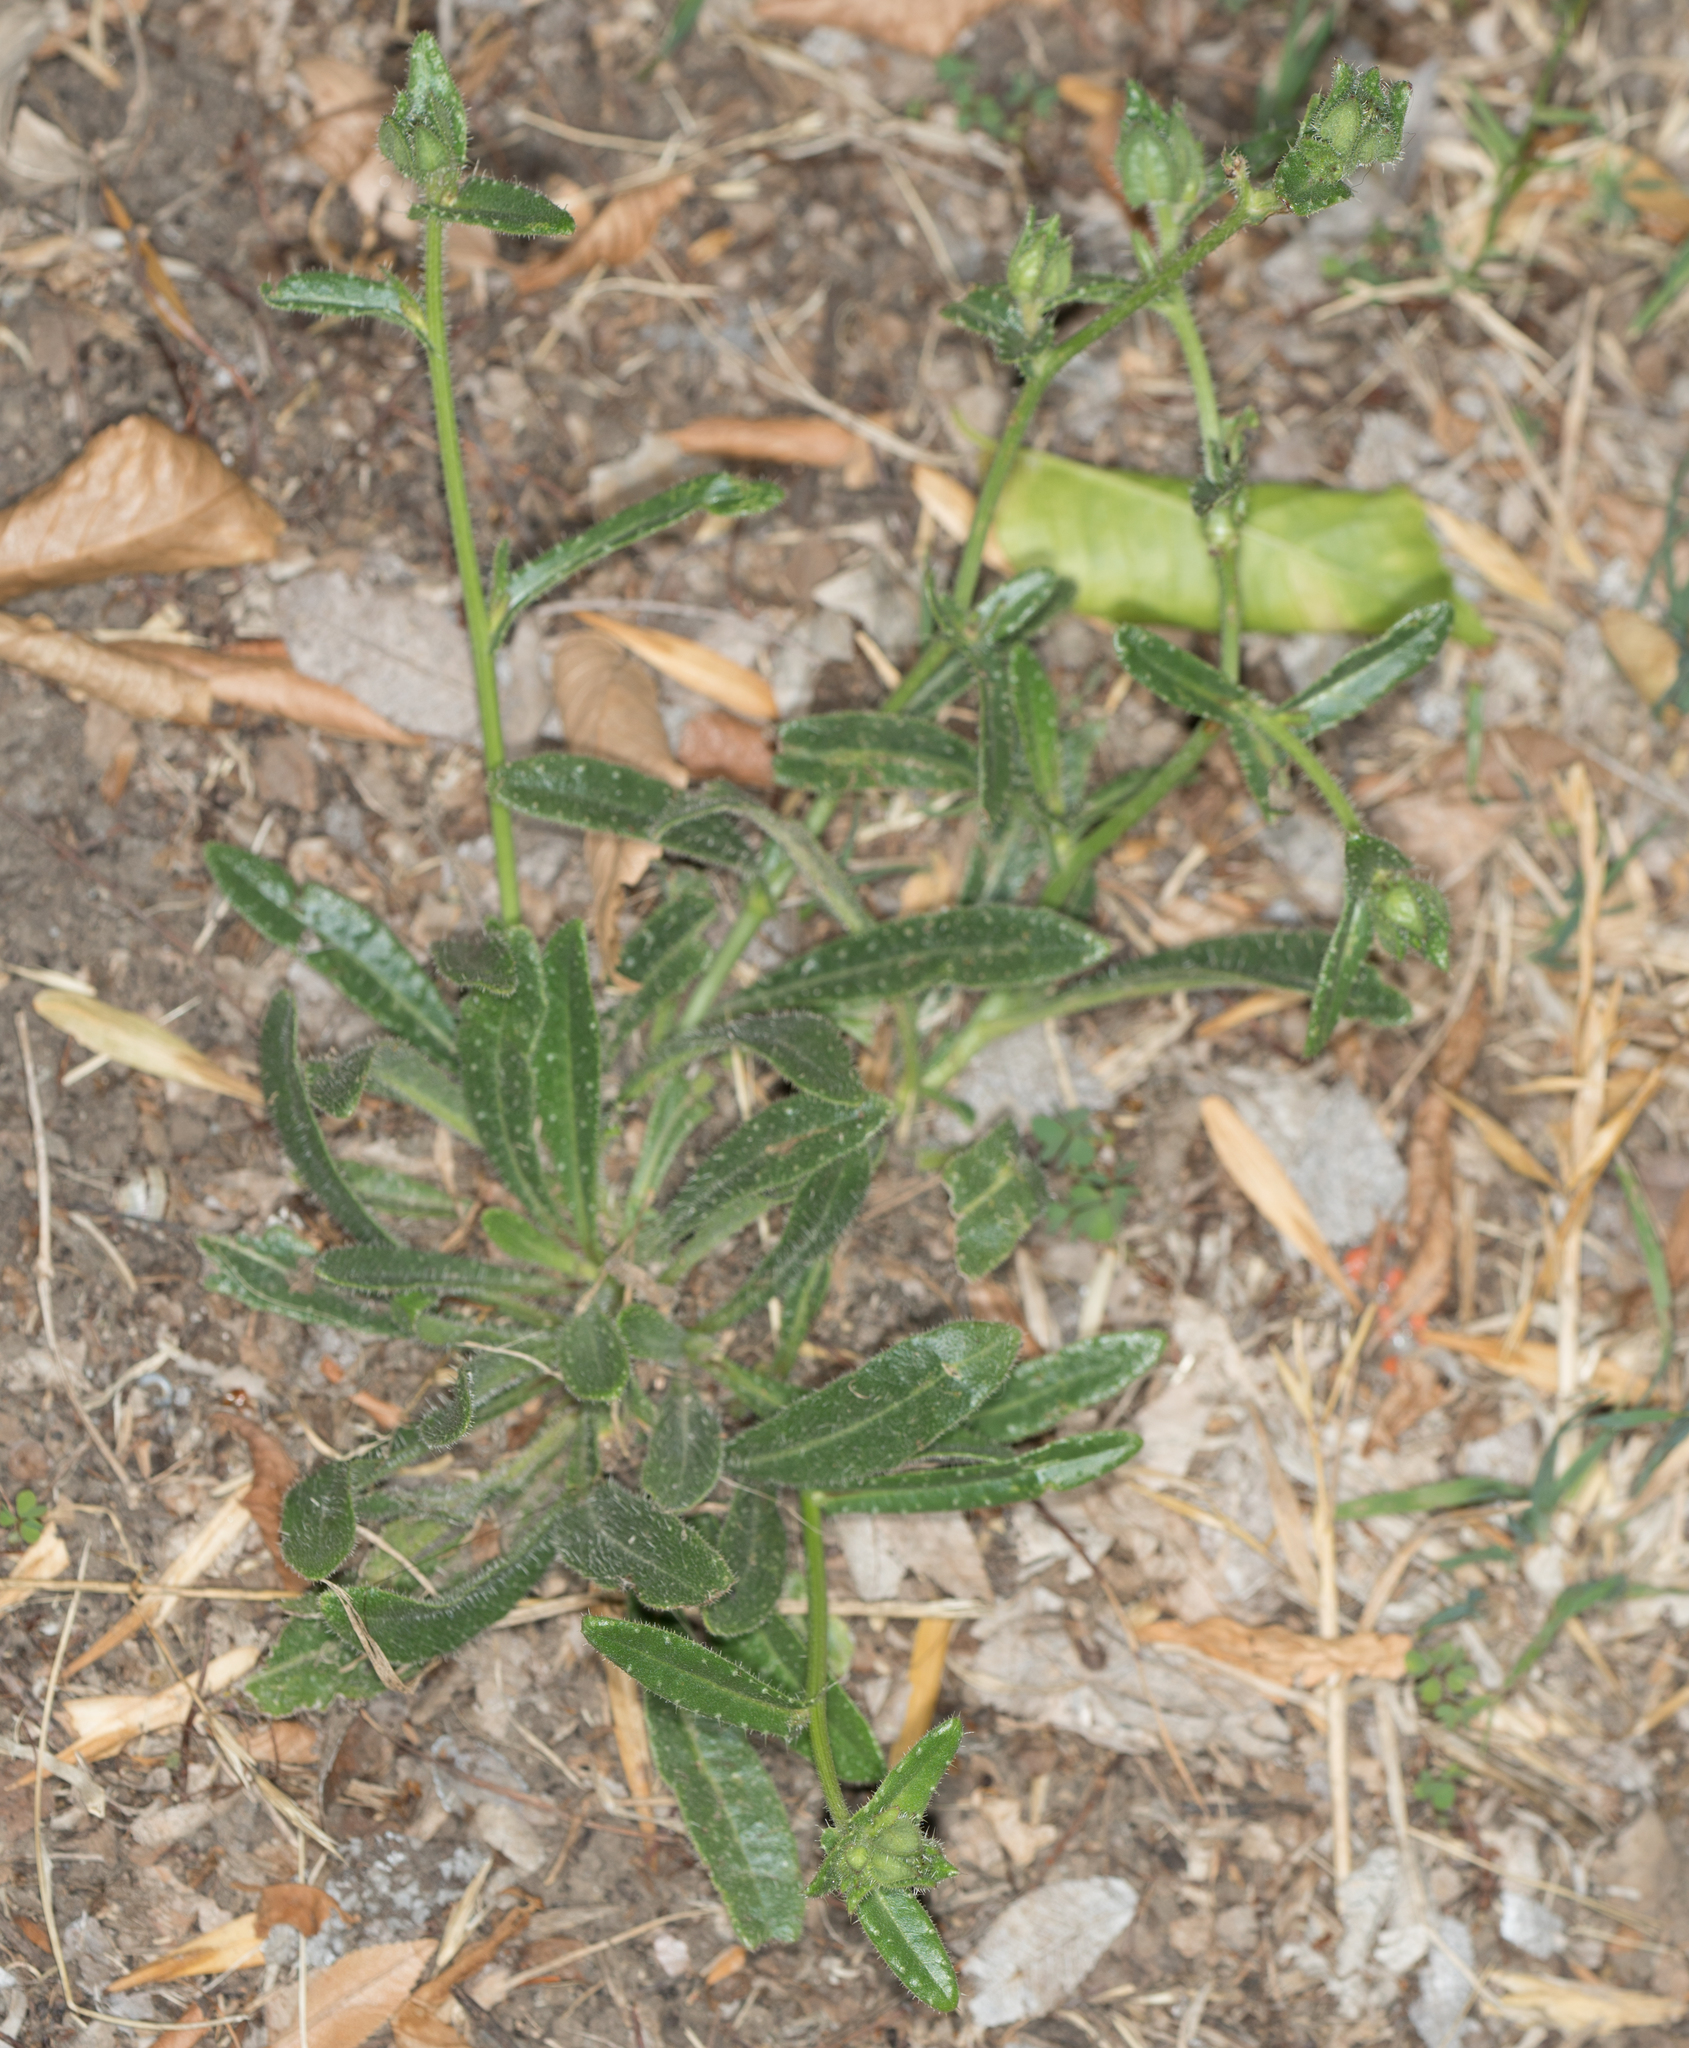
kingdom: Plantae
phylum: Tracheophyta
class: Magnoliopsida
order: Asterales
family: Asteraceae
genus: Helminthotheca
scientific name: Helminthotheca echioides
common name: Ox-tongue
